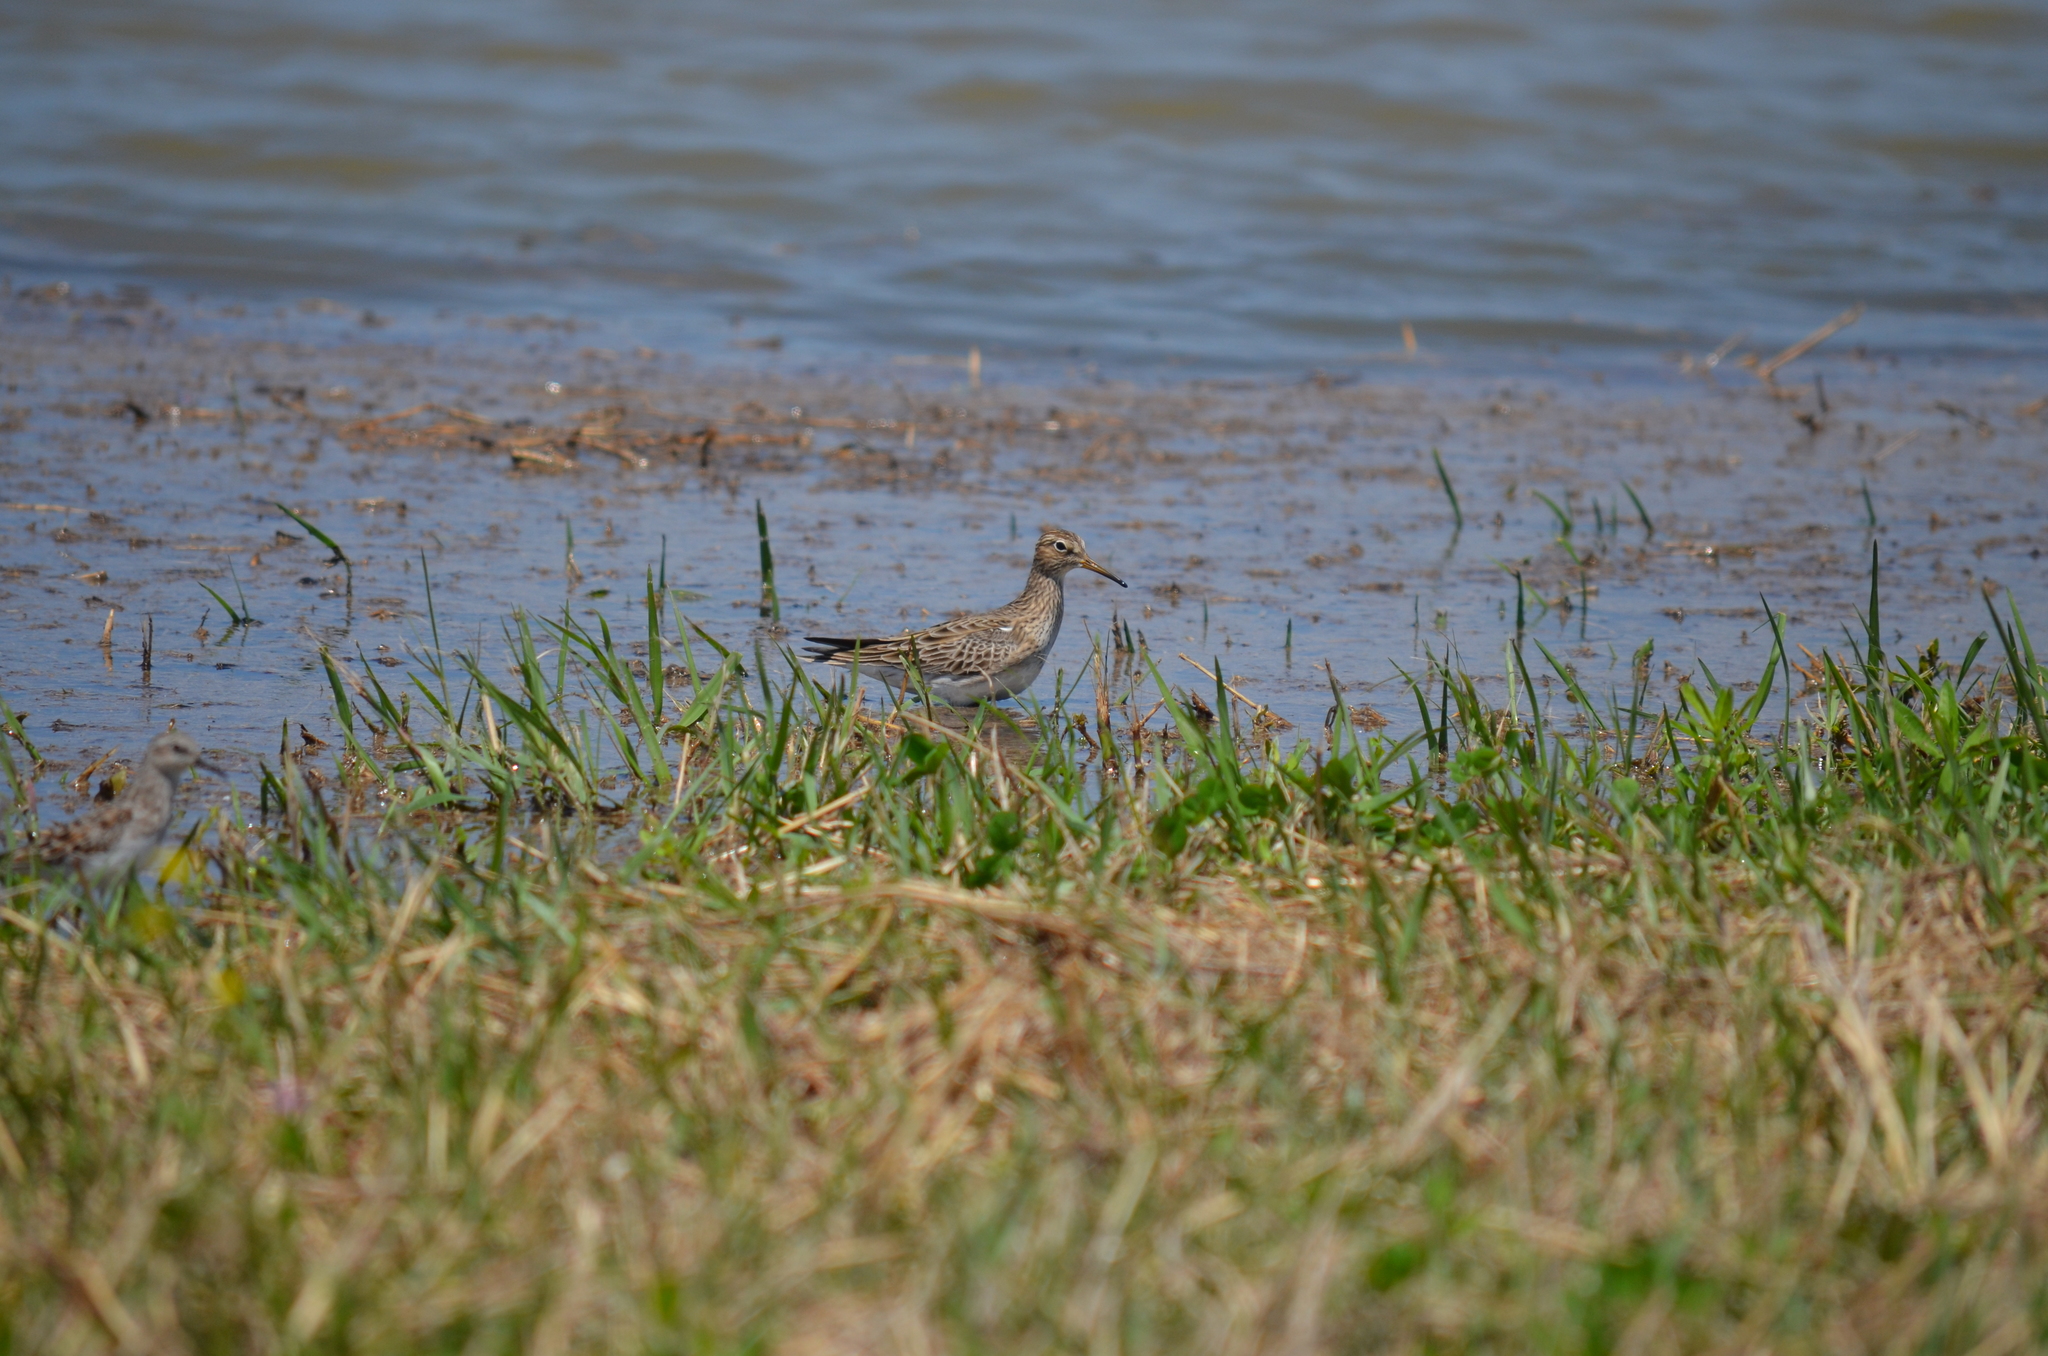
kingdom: Animalia
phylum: Chordata
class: Aves
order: Charadriiformes
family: Scolopacidae
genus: Calidris
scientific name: Calidris melanotos
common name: Pectoral sandpiper
